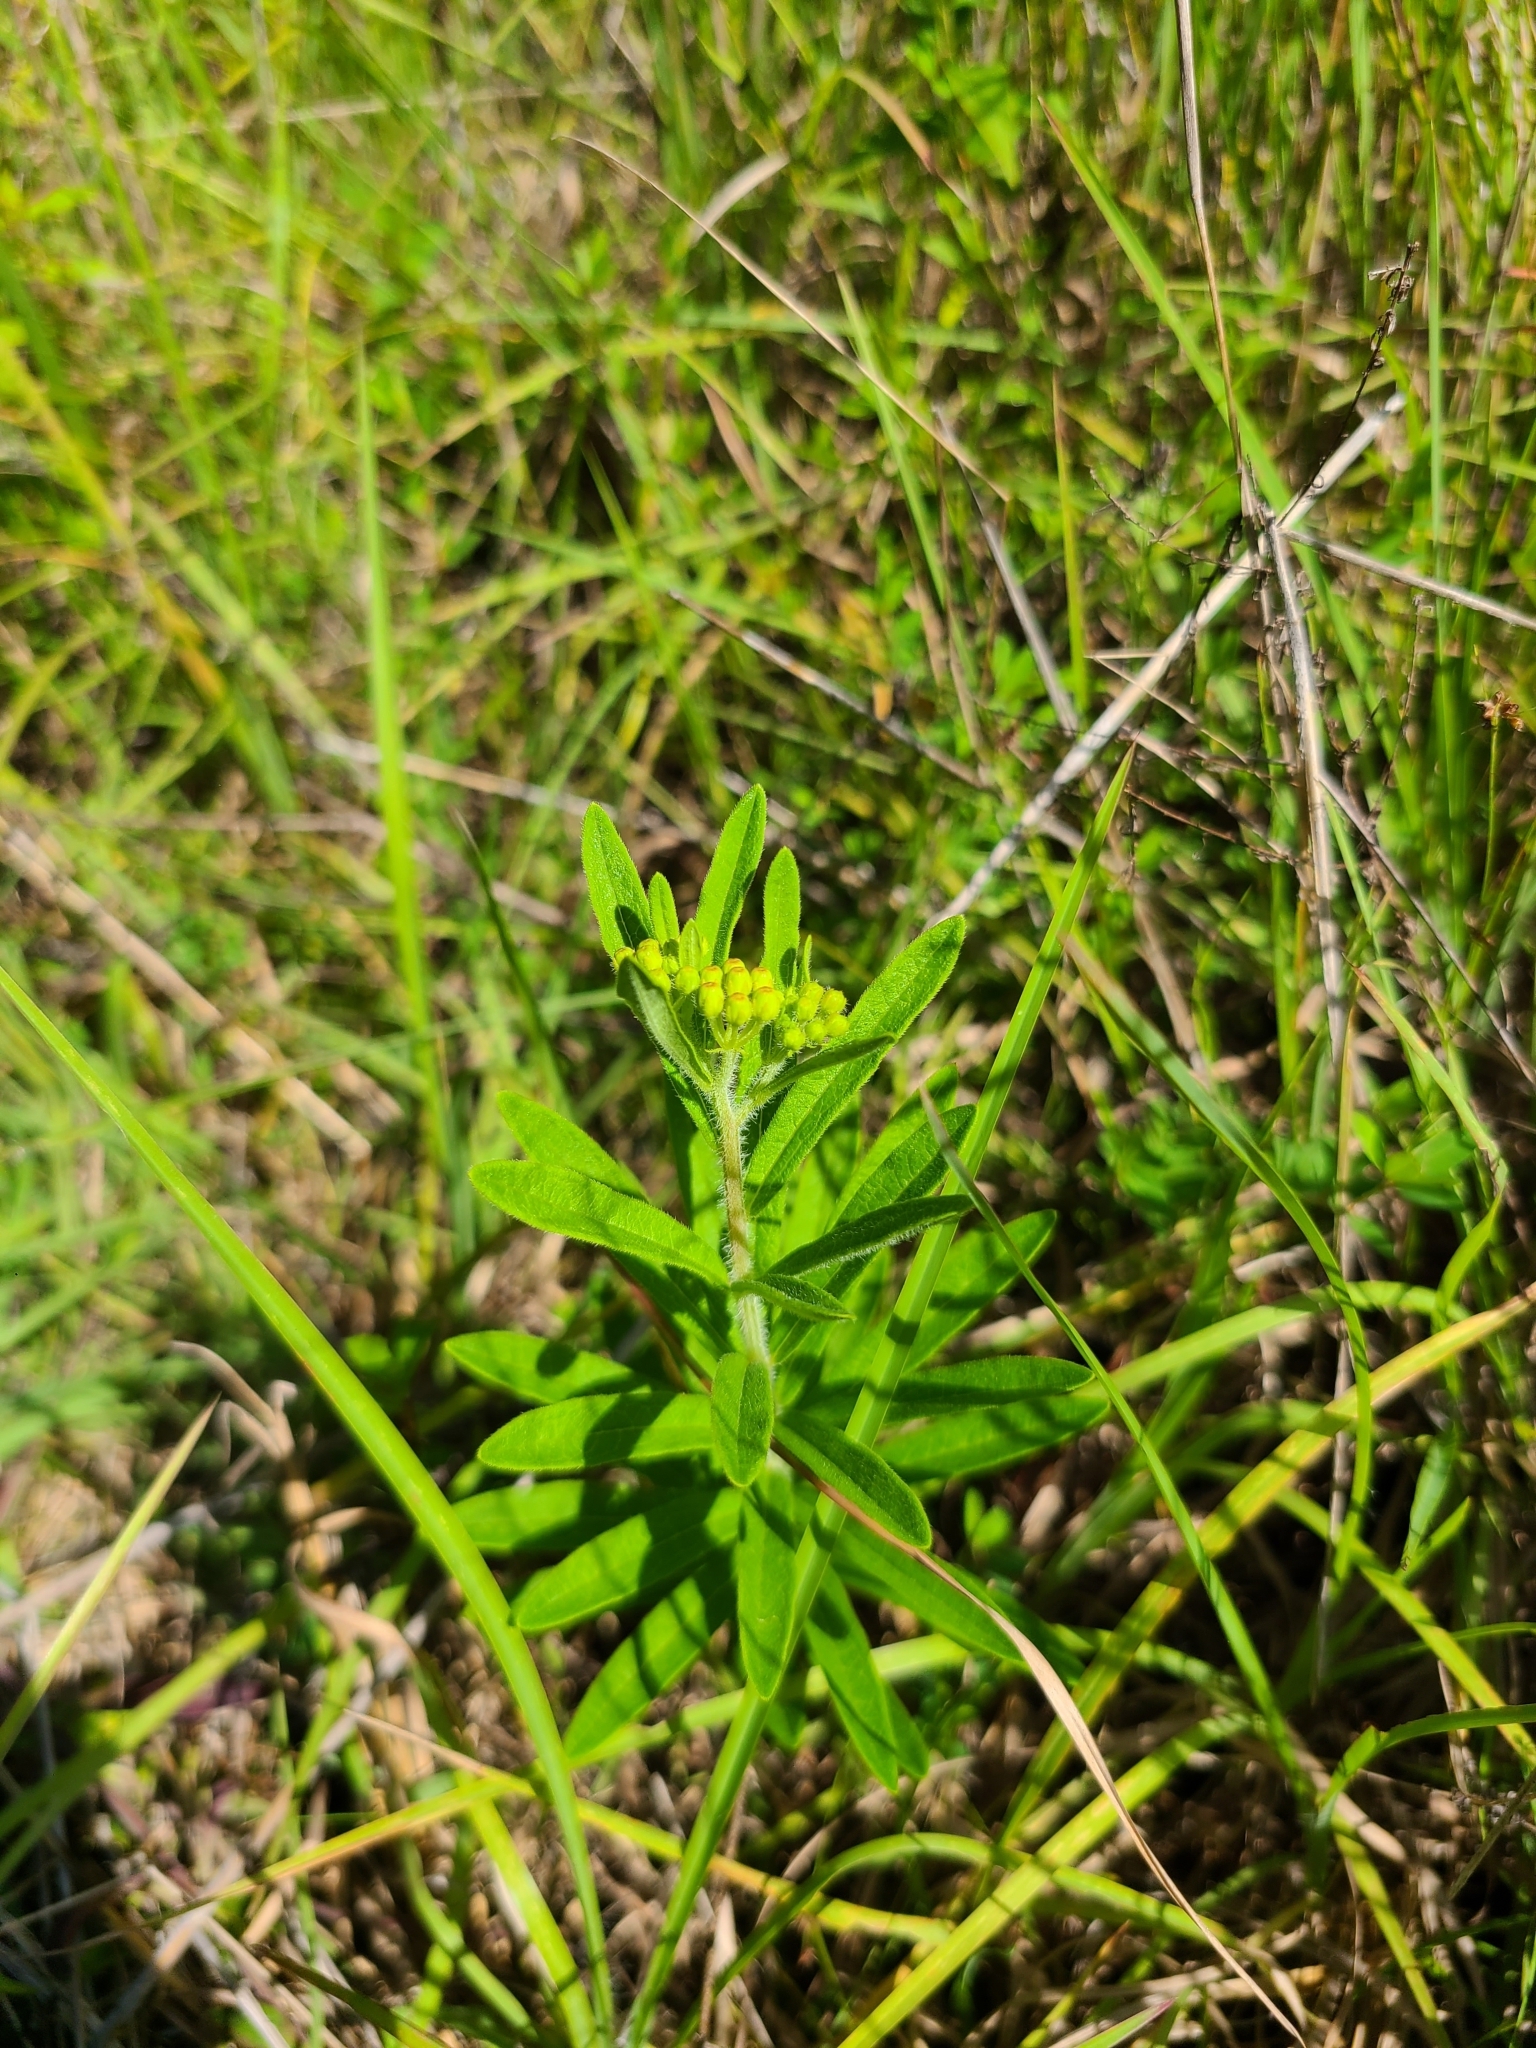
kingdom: Plantae
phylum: Tracheophyta
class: Magnoliopsida
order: Gentianales
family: Apocynaceae
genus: Asclepias
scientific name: Asclepias tuberosa
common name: Butterfly milkweed
